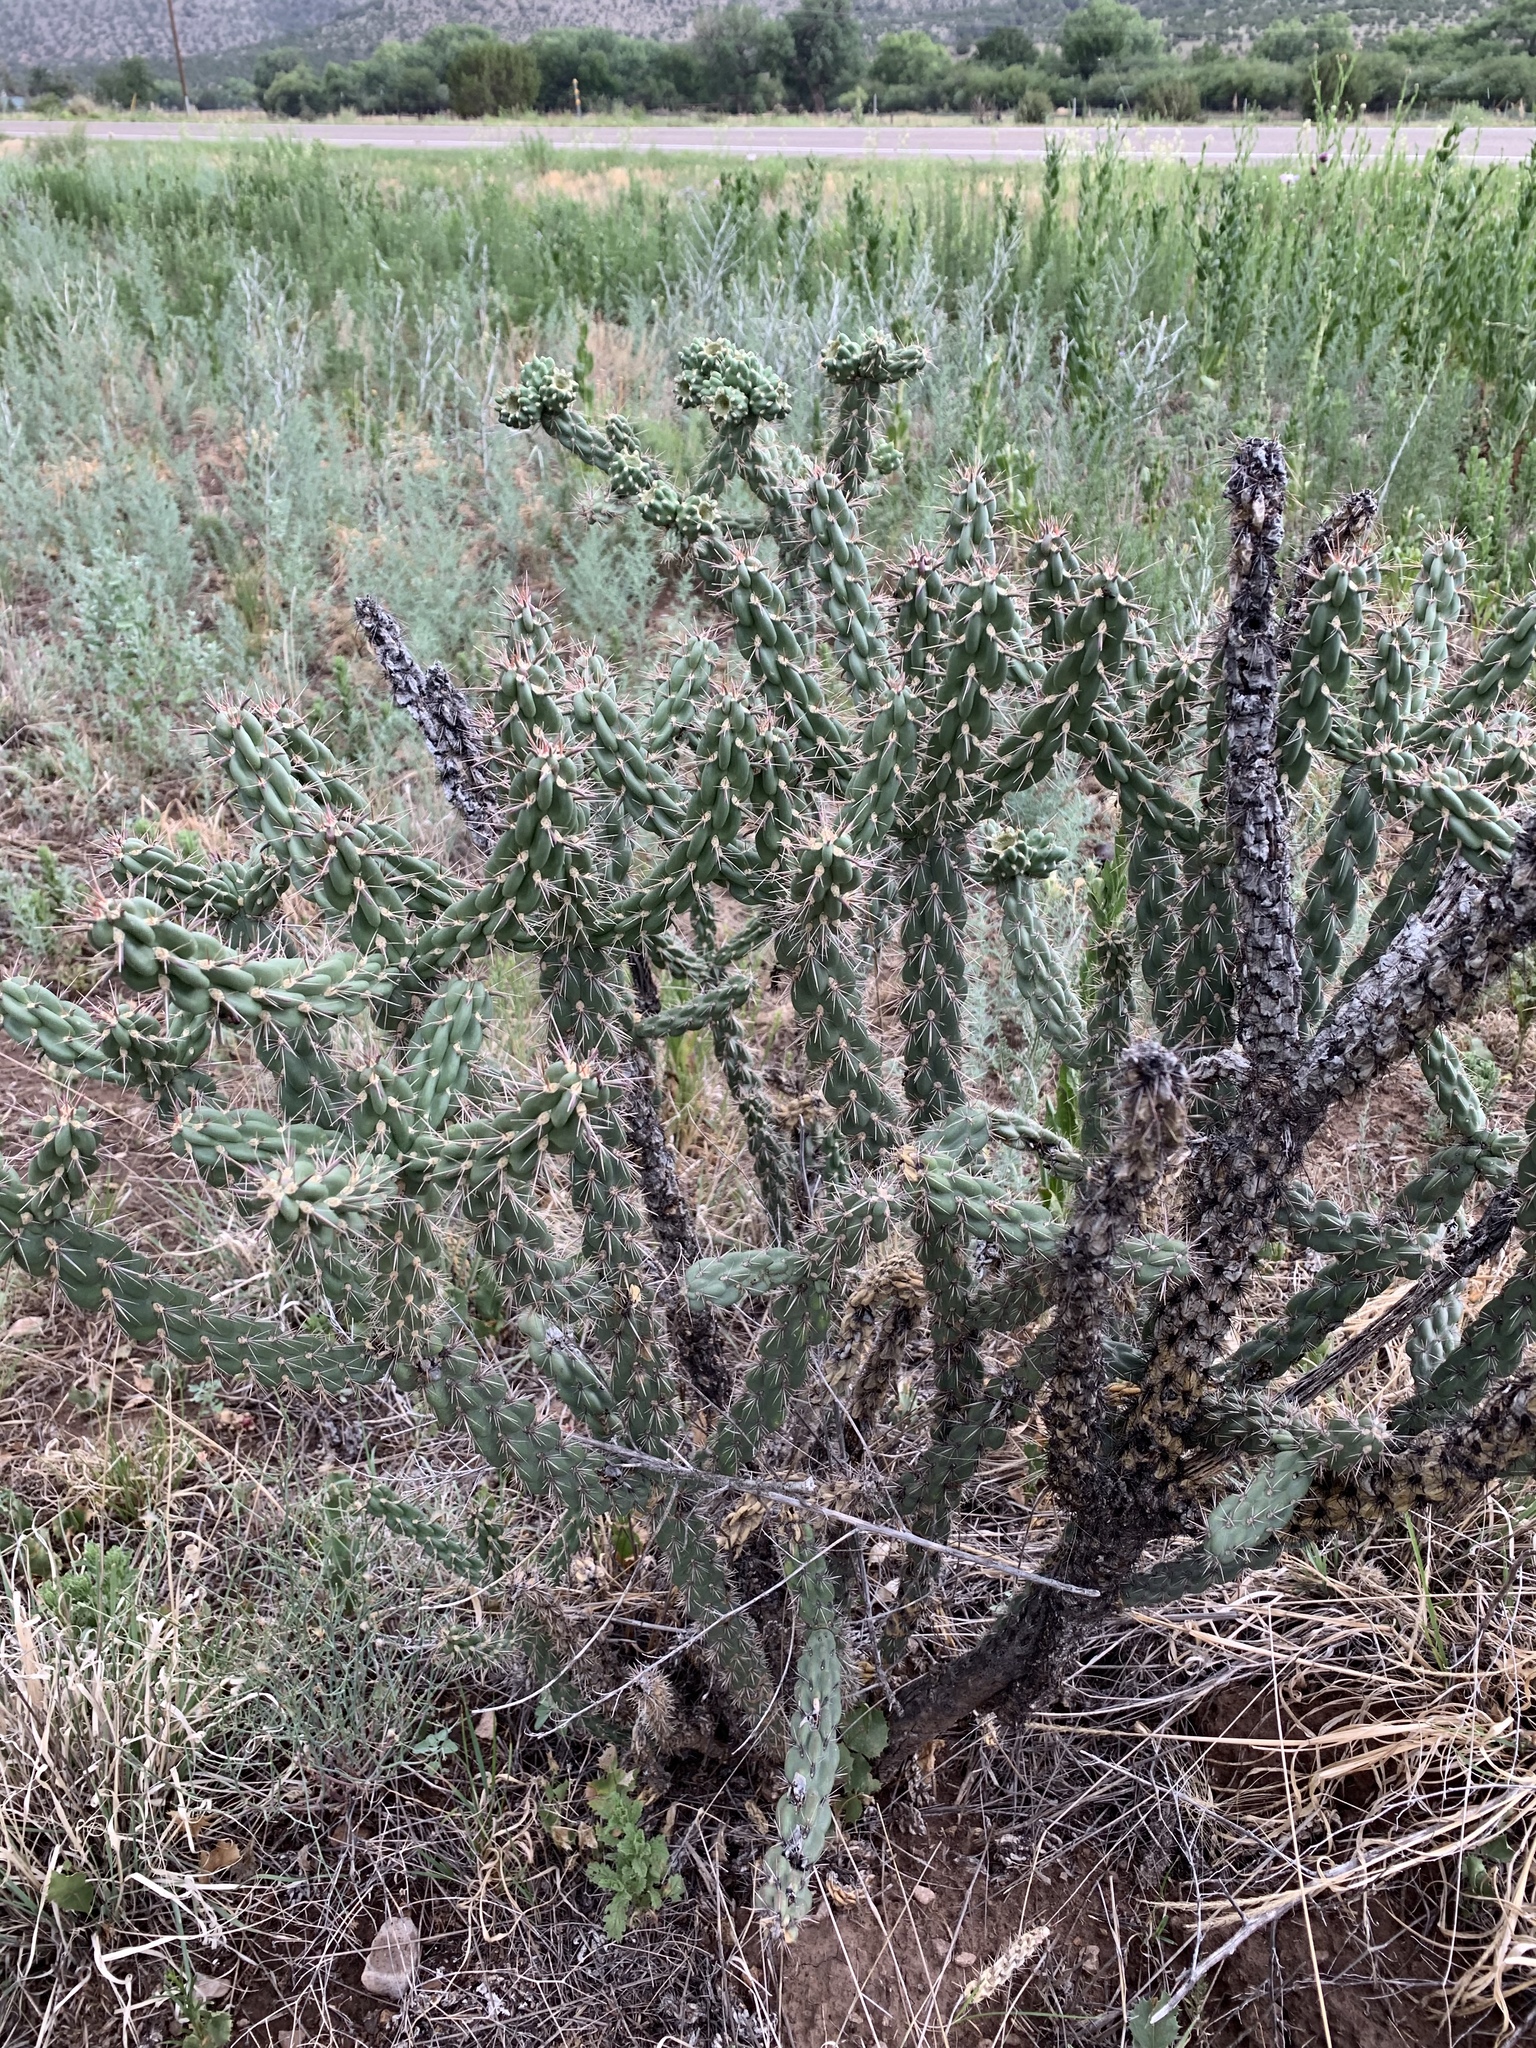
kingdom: Plantae
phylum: Tracheophyta
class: Magnoliopsida
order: Caryophyllales
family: Cactaceae
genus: Cylindropuntia
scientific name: Cylindropuntia imbricata
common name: Candelabrum cactus
